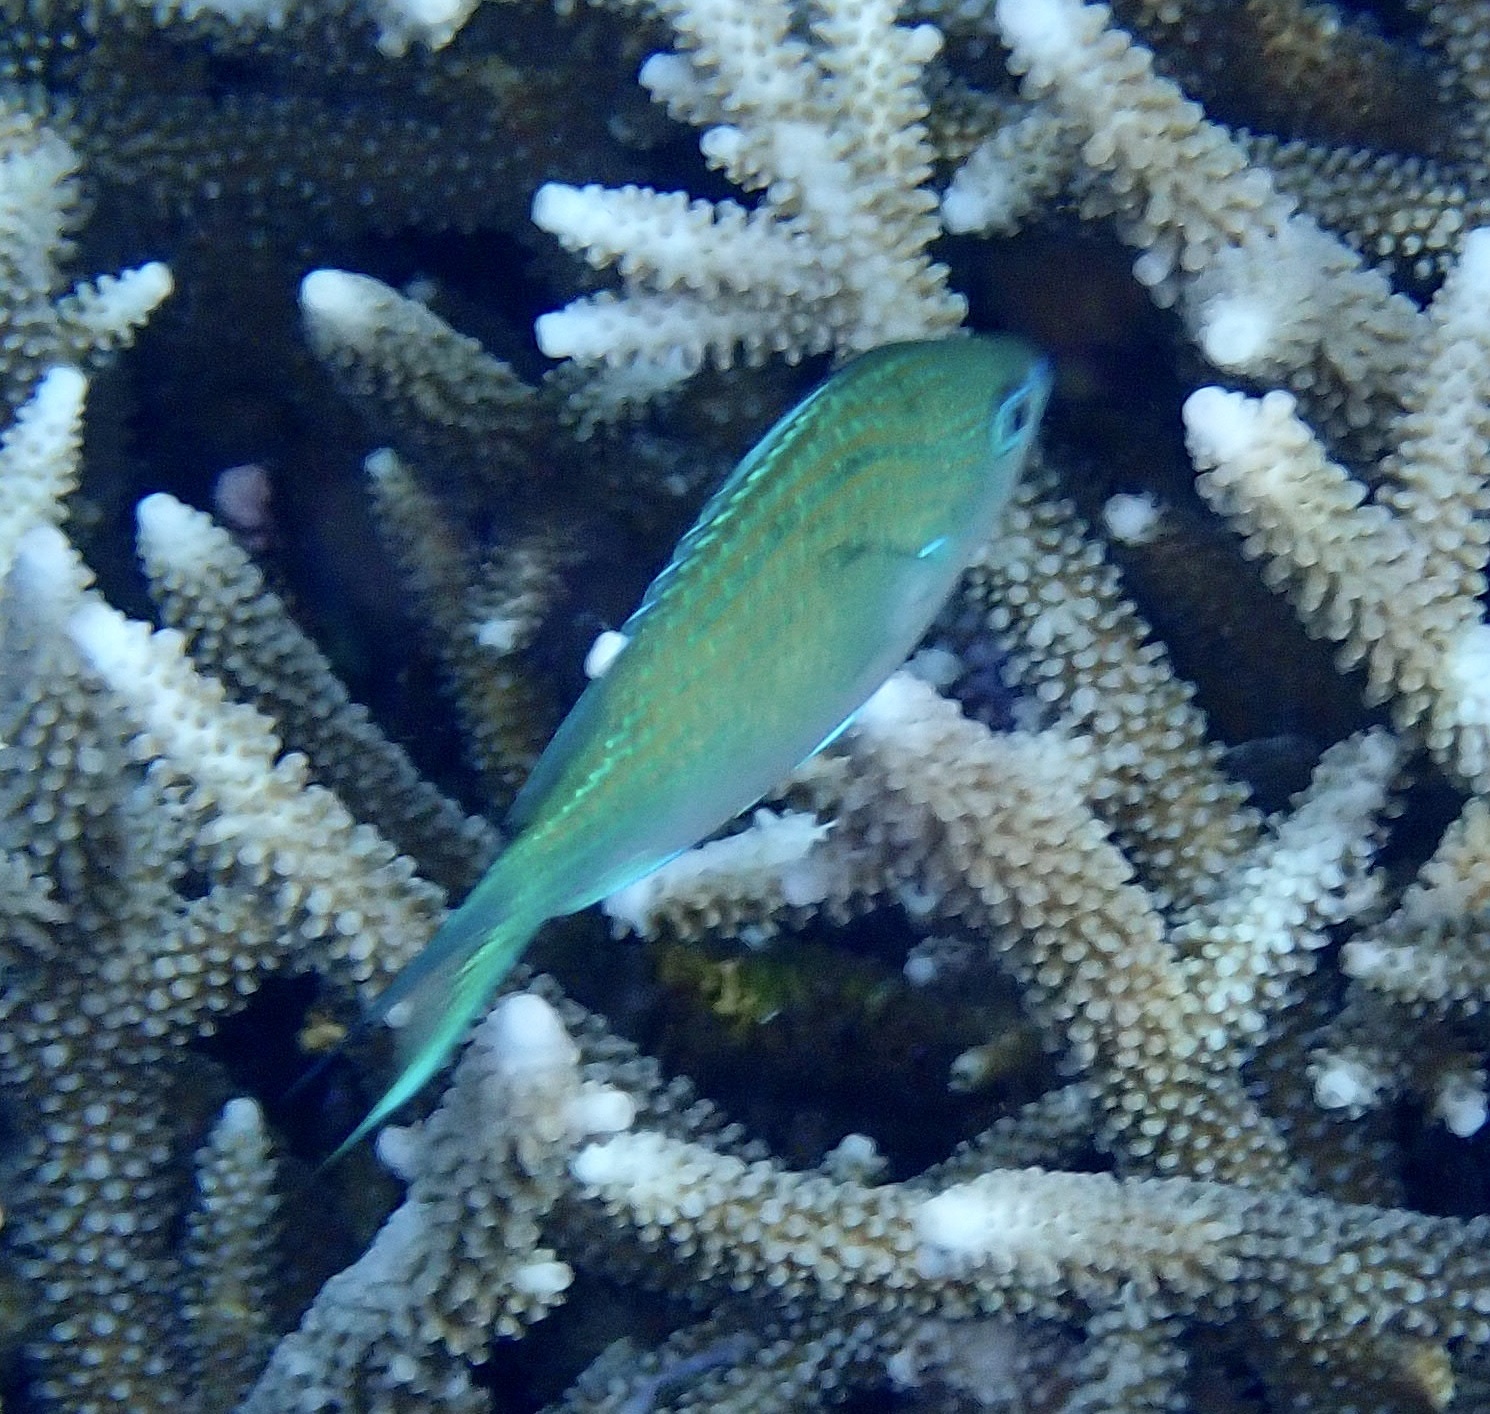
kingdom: Animalia
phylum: Chordata
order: Perciformes
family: Pomacentridae
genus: Chromis
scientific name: Chromis atripectoralis
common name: Black-axil chromis
